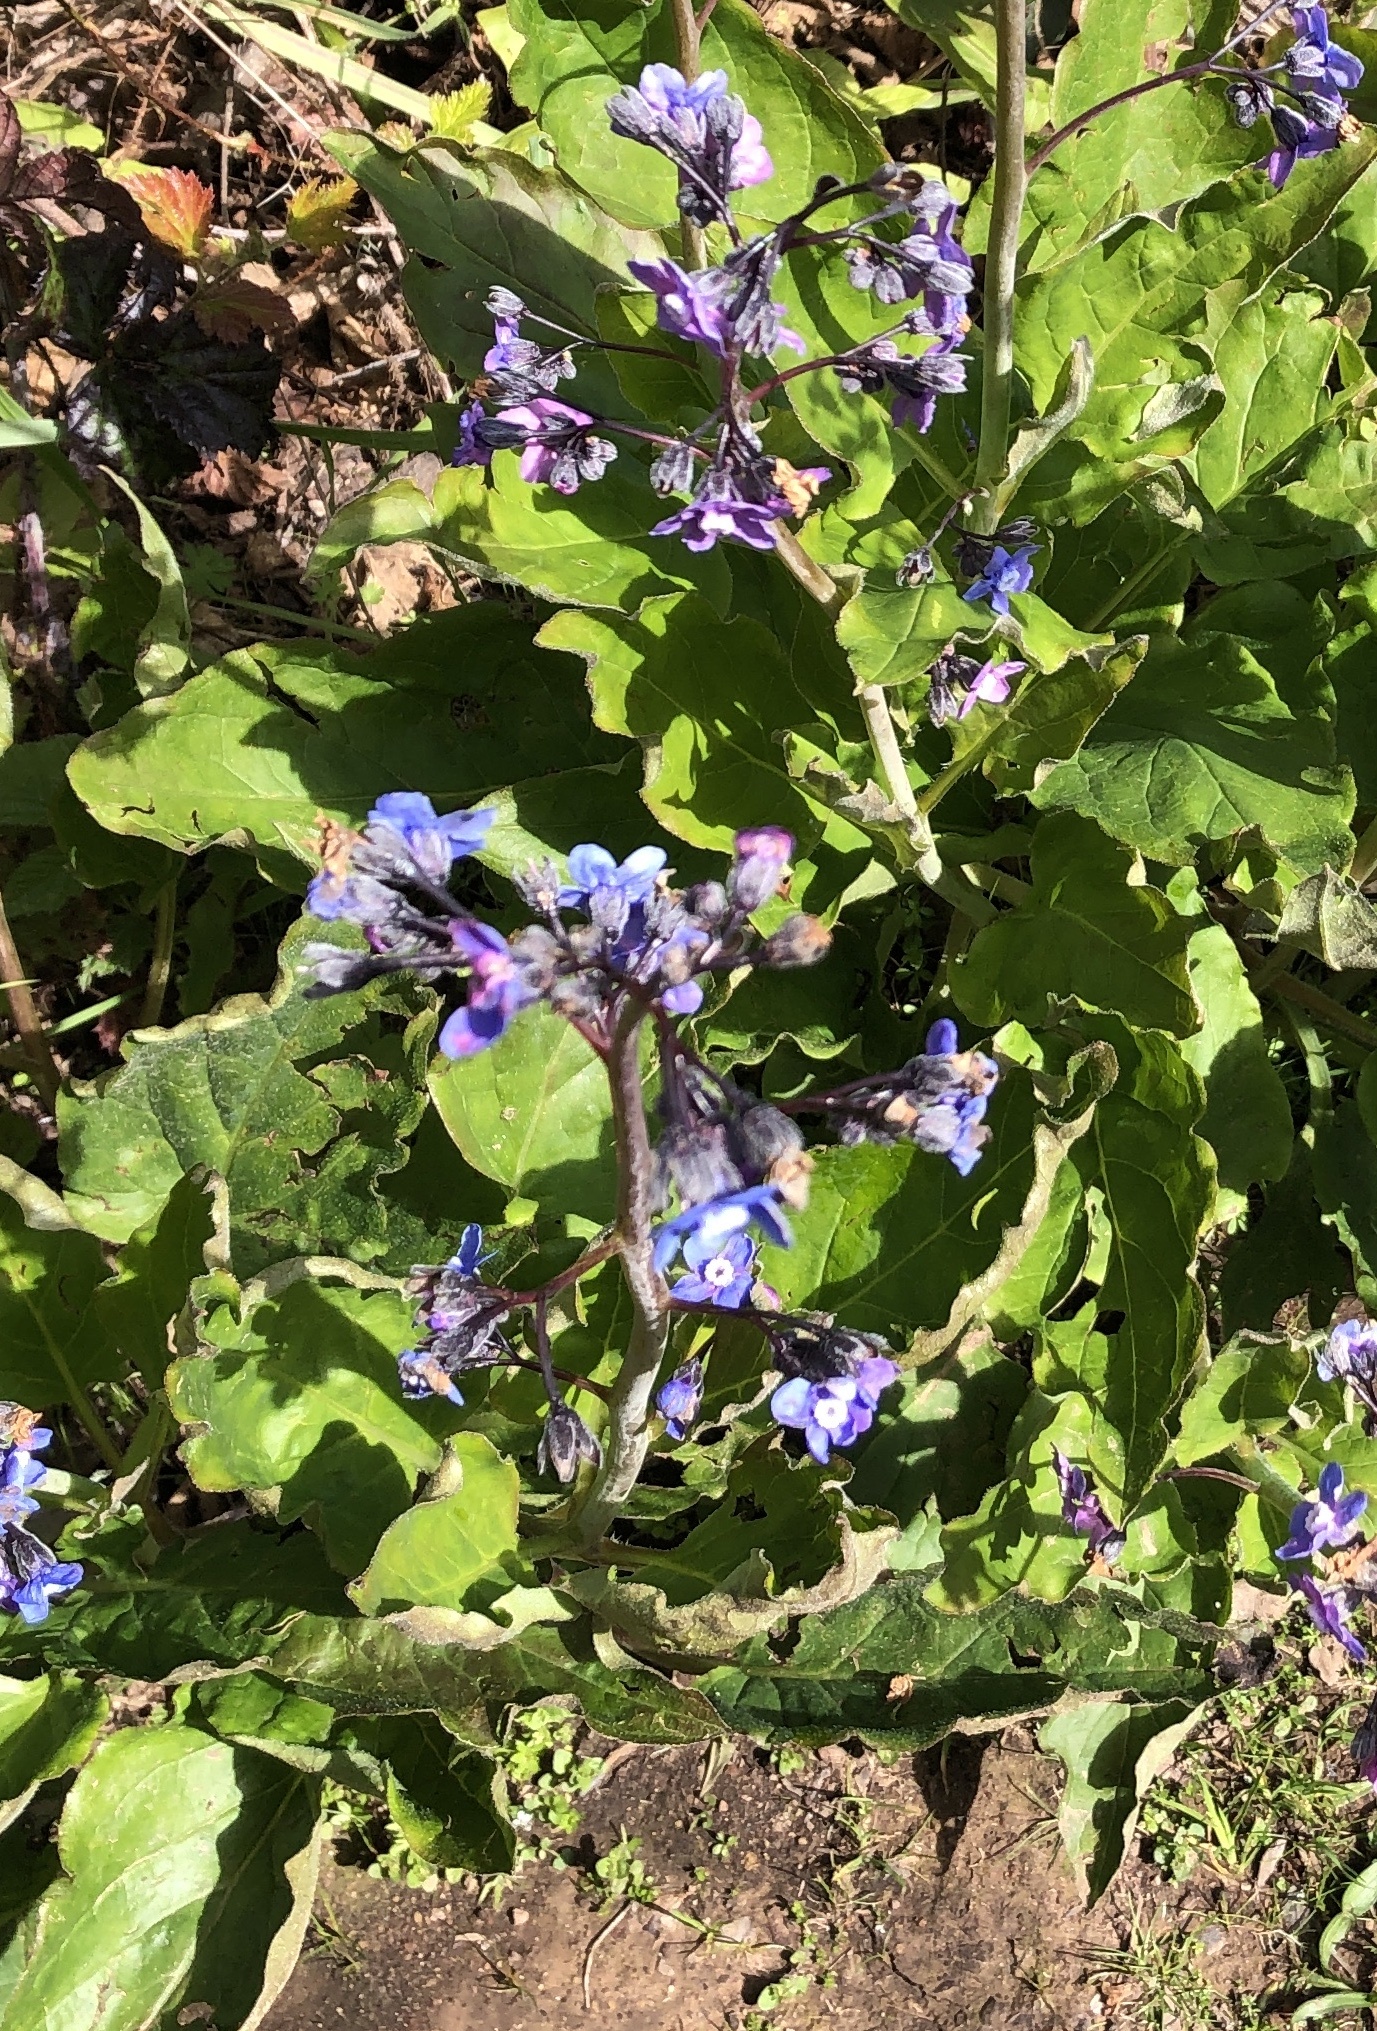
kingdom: Plantae
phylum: Tracheophyta
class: Magnoliopsida
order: Boraginales
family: Boraginaceae
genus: Adelinia
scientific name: Adelinia grande
